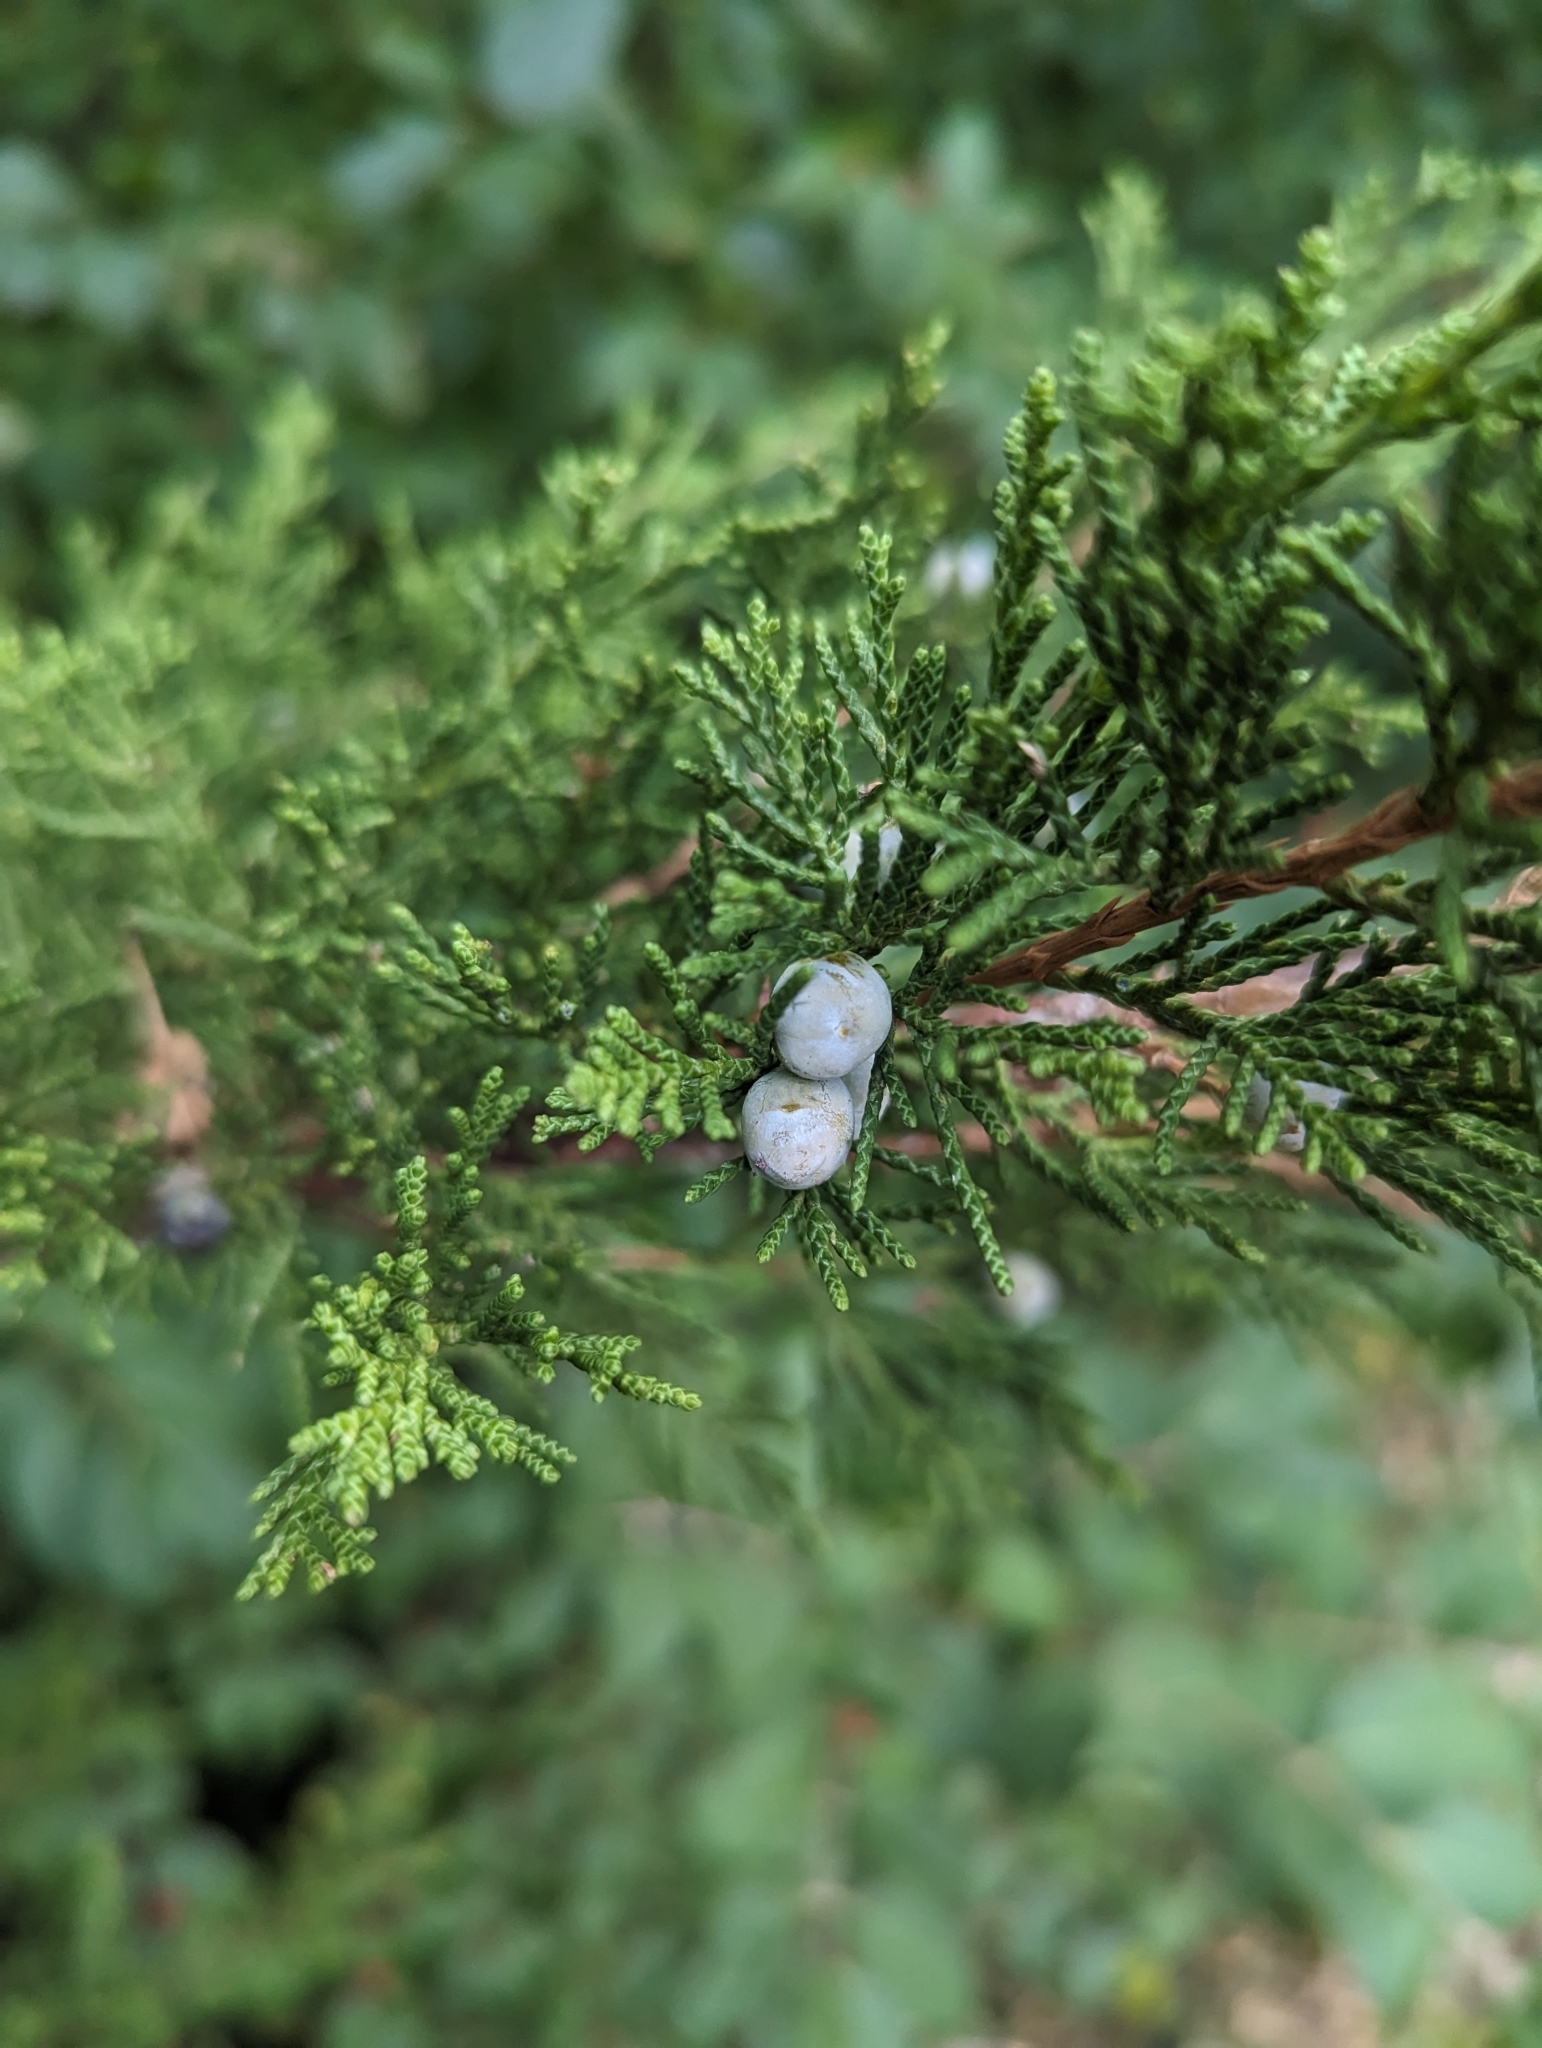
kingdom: Plantae
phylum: Tracheophyta
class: Pinopsida
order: Pinales
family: Cupressaceae
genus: Juniperus
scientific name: Juniperus virginiana
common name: Red juniper
